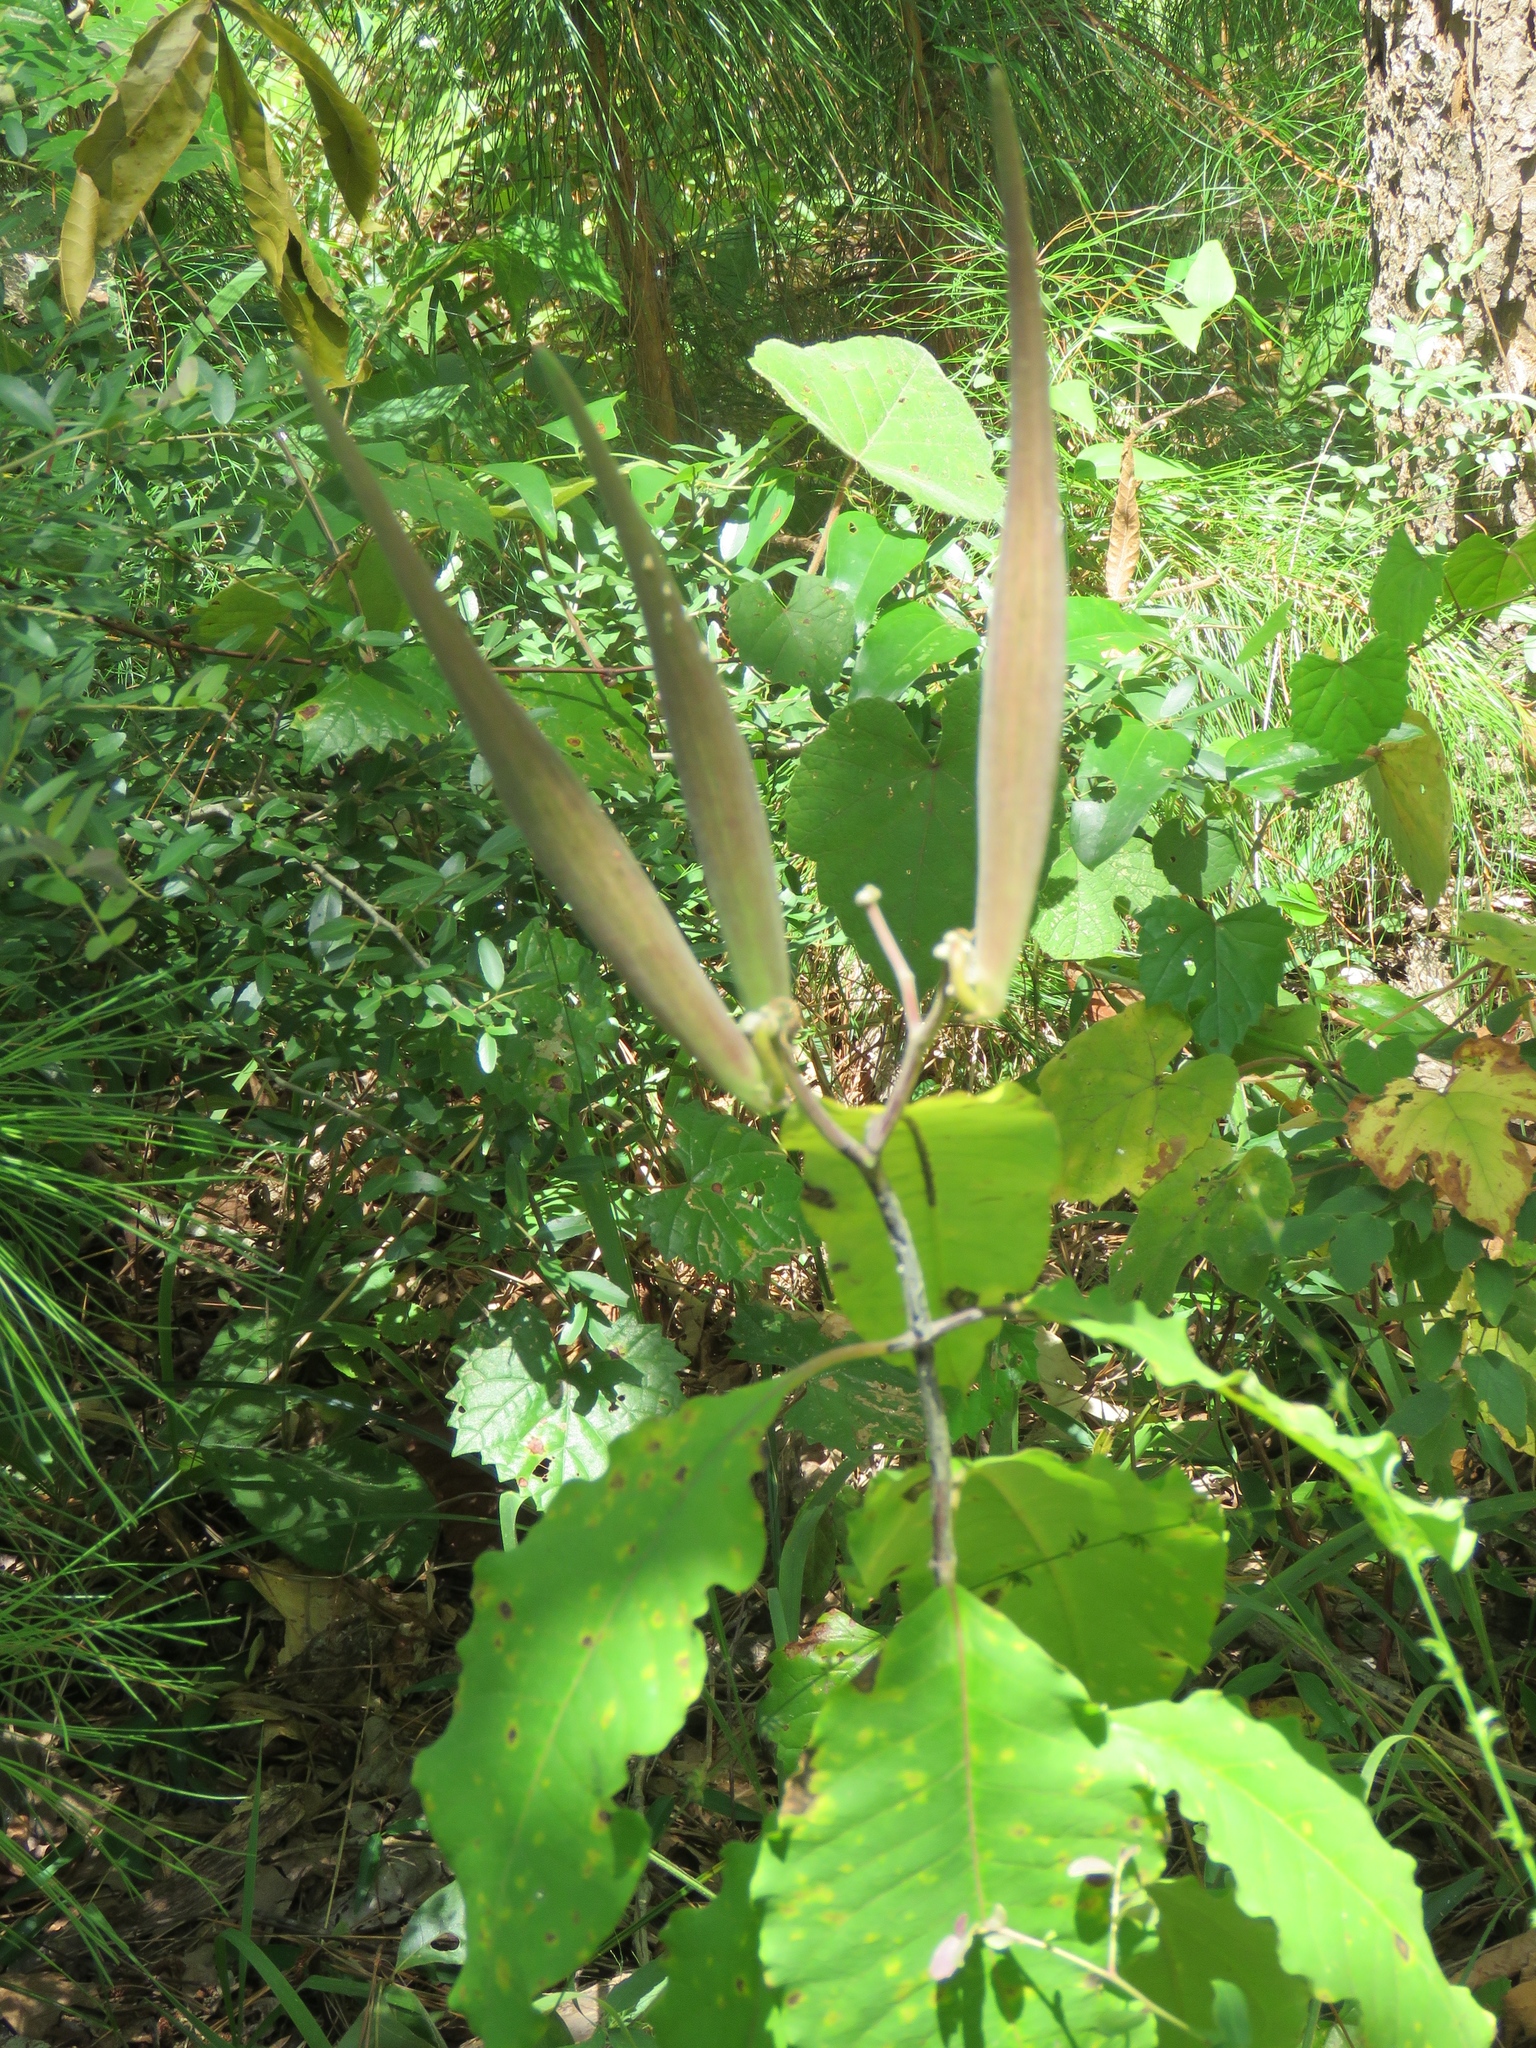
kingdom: Plantae
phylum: Tracheophyta
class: Magnoliopsida
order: Gentianales
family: Apocynaceae
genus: Asclepias
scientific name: Asclepias variegata
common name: Variegated milkweed
